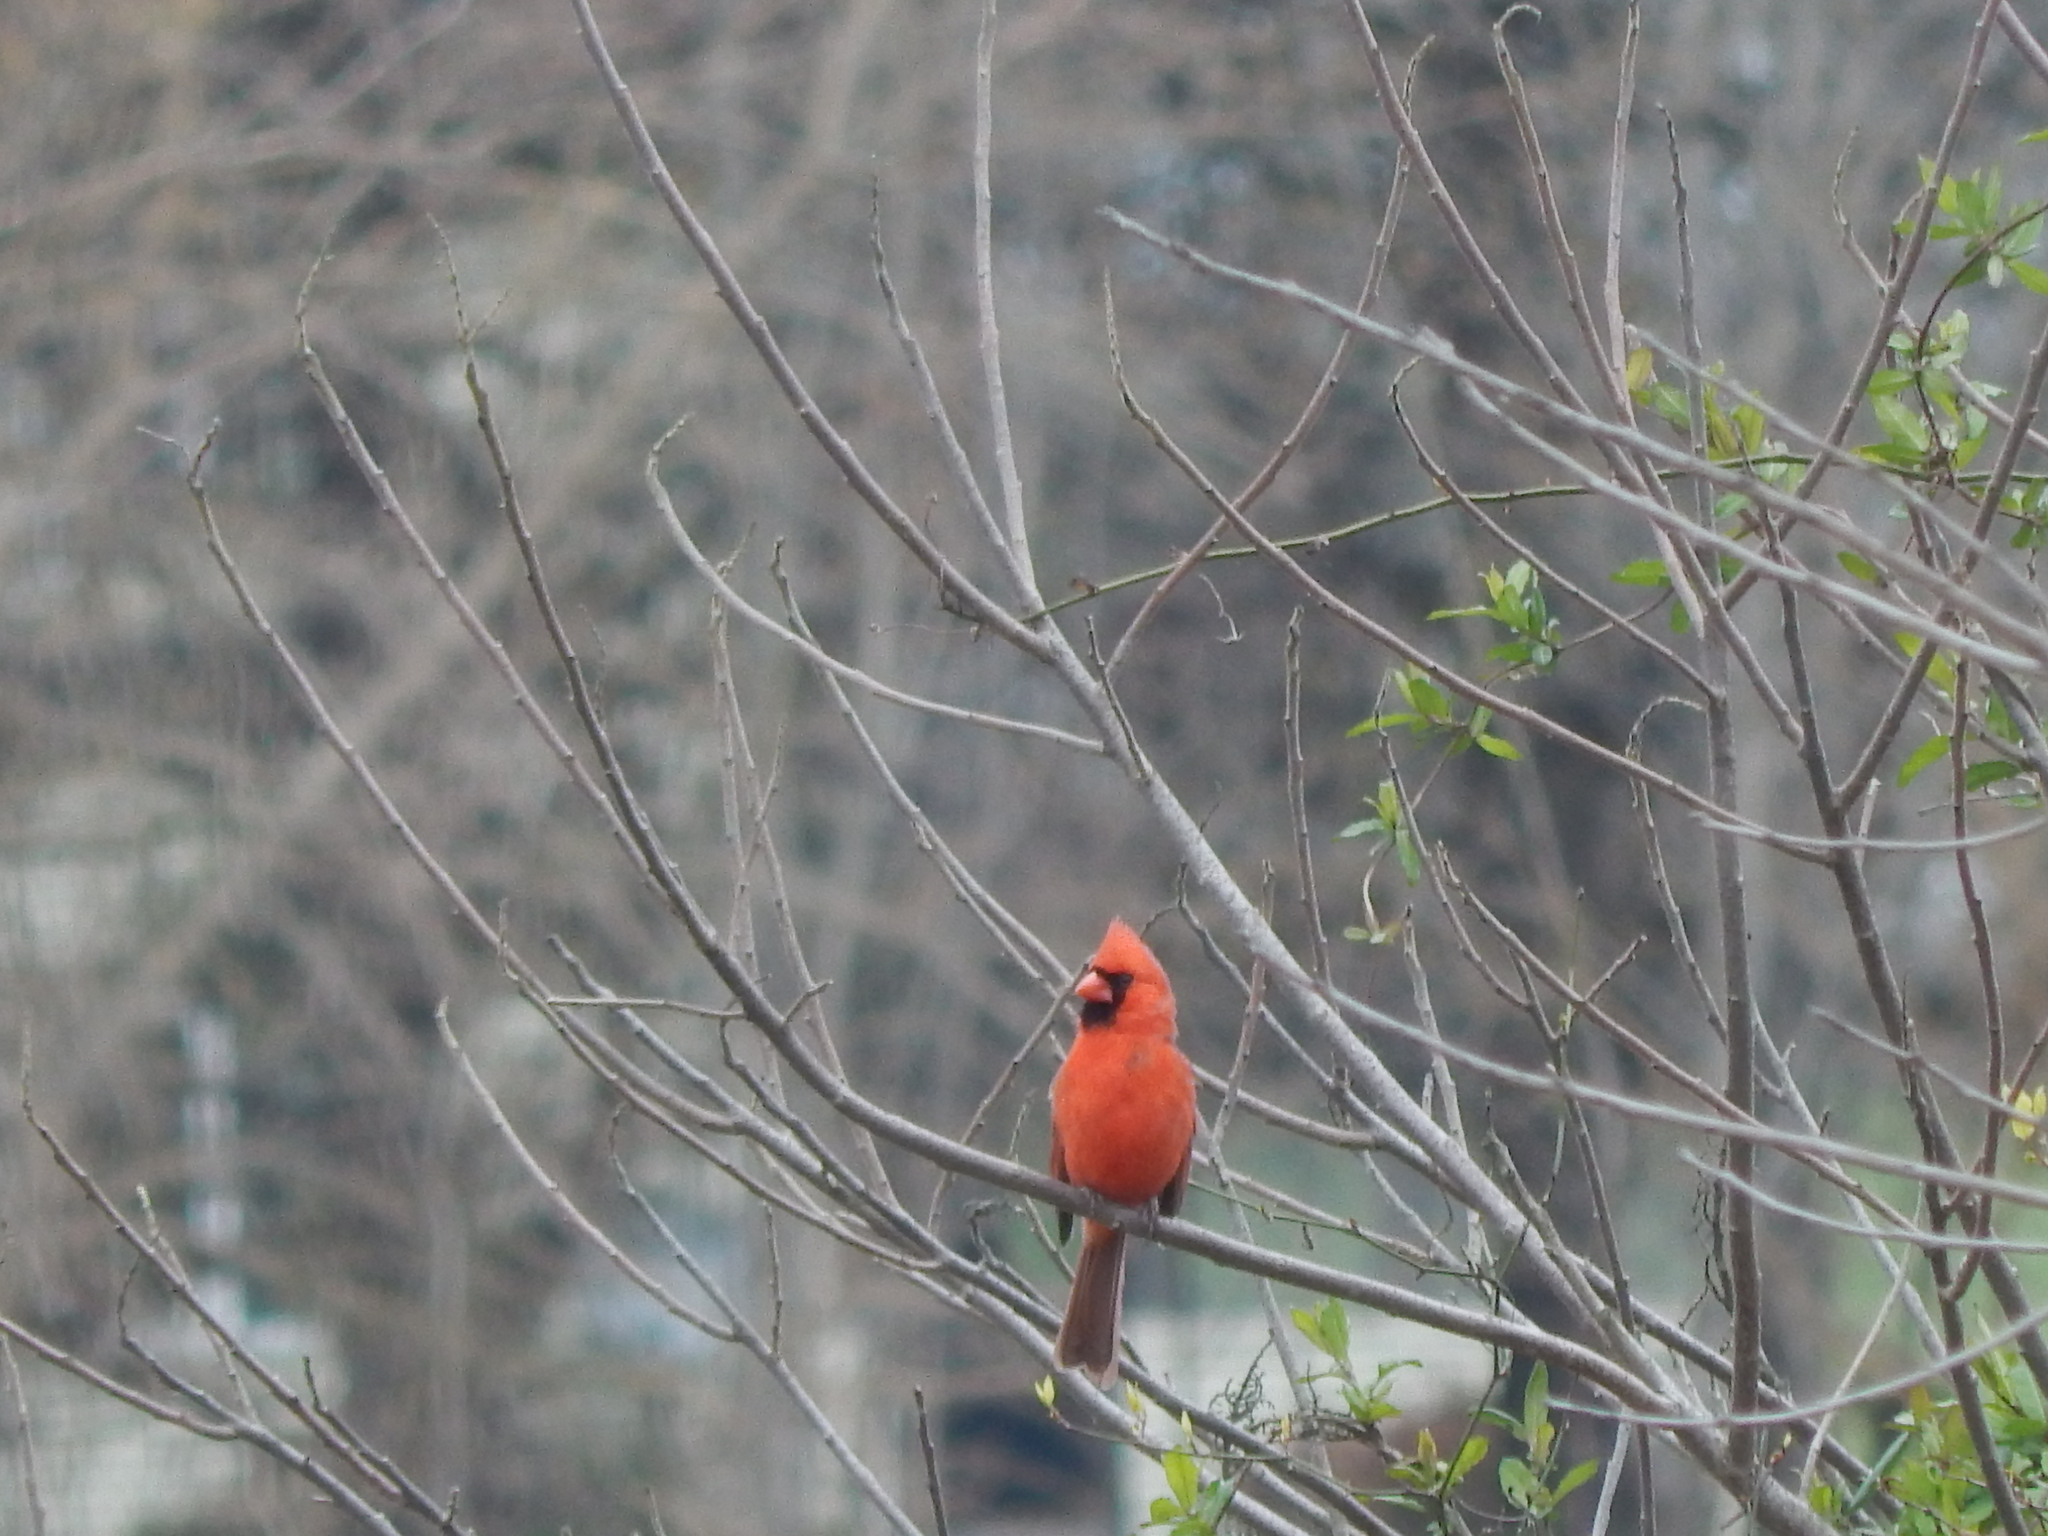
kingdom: Animalia
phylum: Chordata
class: Aves
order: Passeriformes
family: Cardinalidae
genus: Cardinalis
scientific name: Cardinalis cardinalis
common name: Northern cardinal
